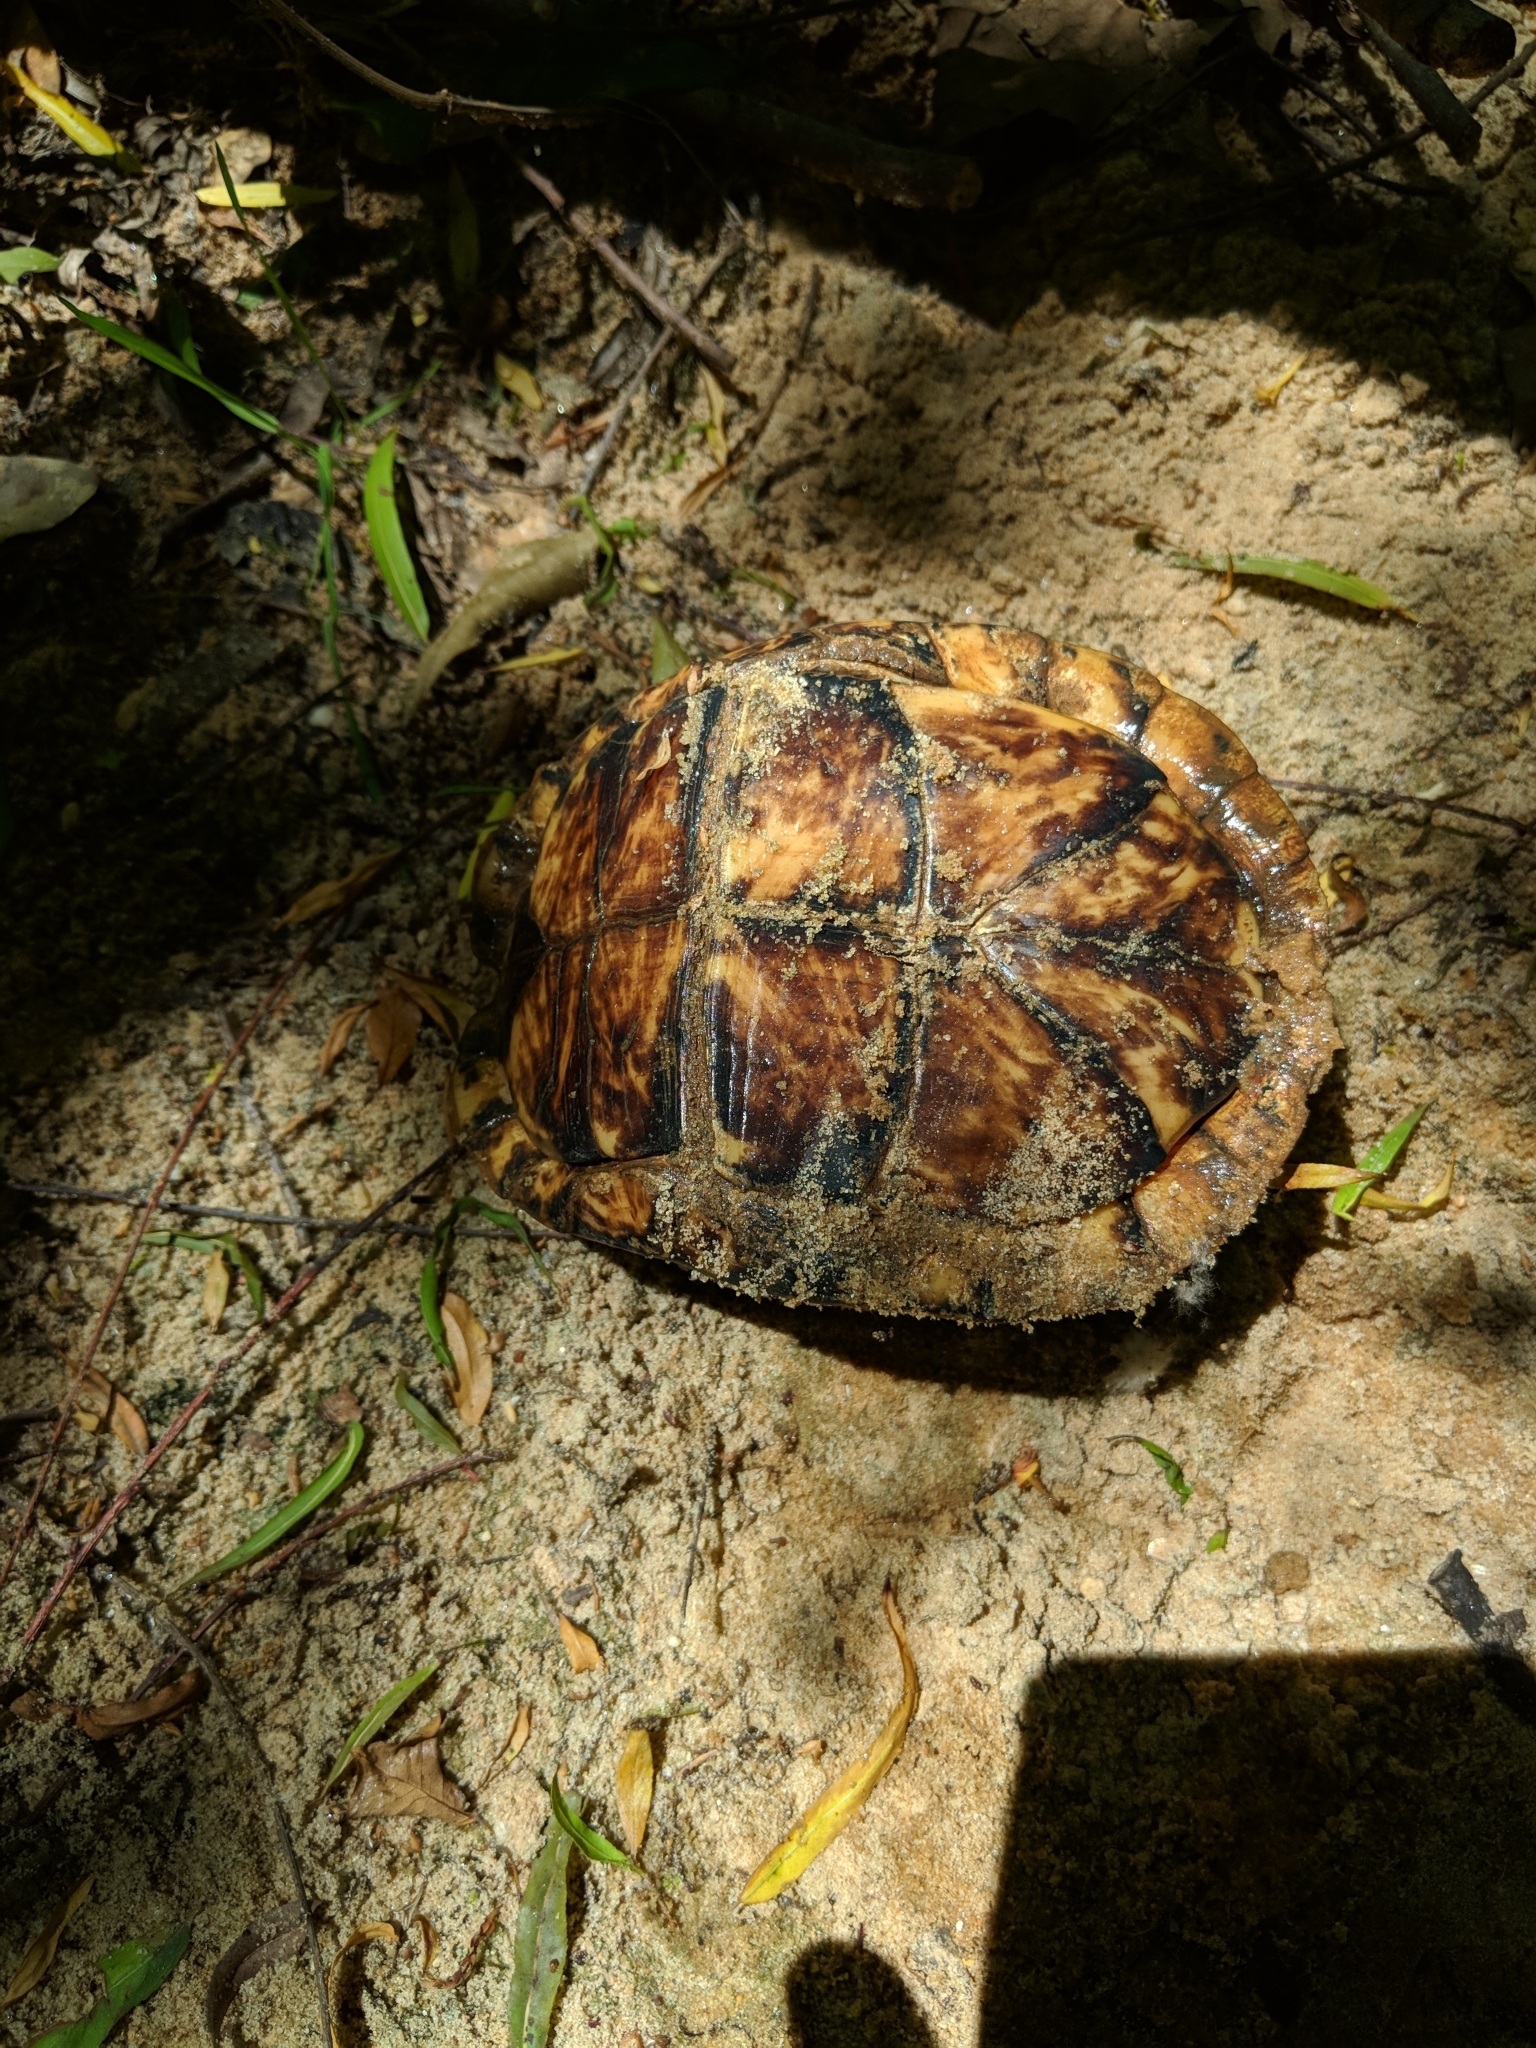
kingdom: Animalia
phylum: Chordata
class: Testudines
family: Emydidae
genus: Terrapene
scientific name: Terrapene carolina
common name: Common box turtle
